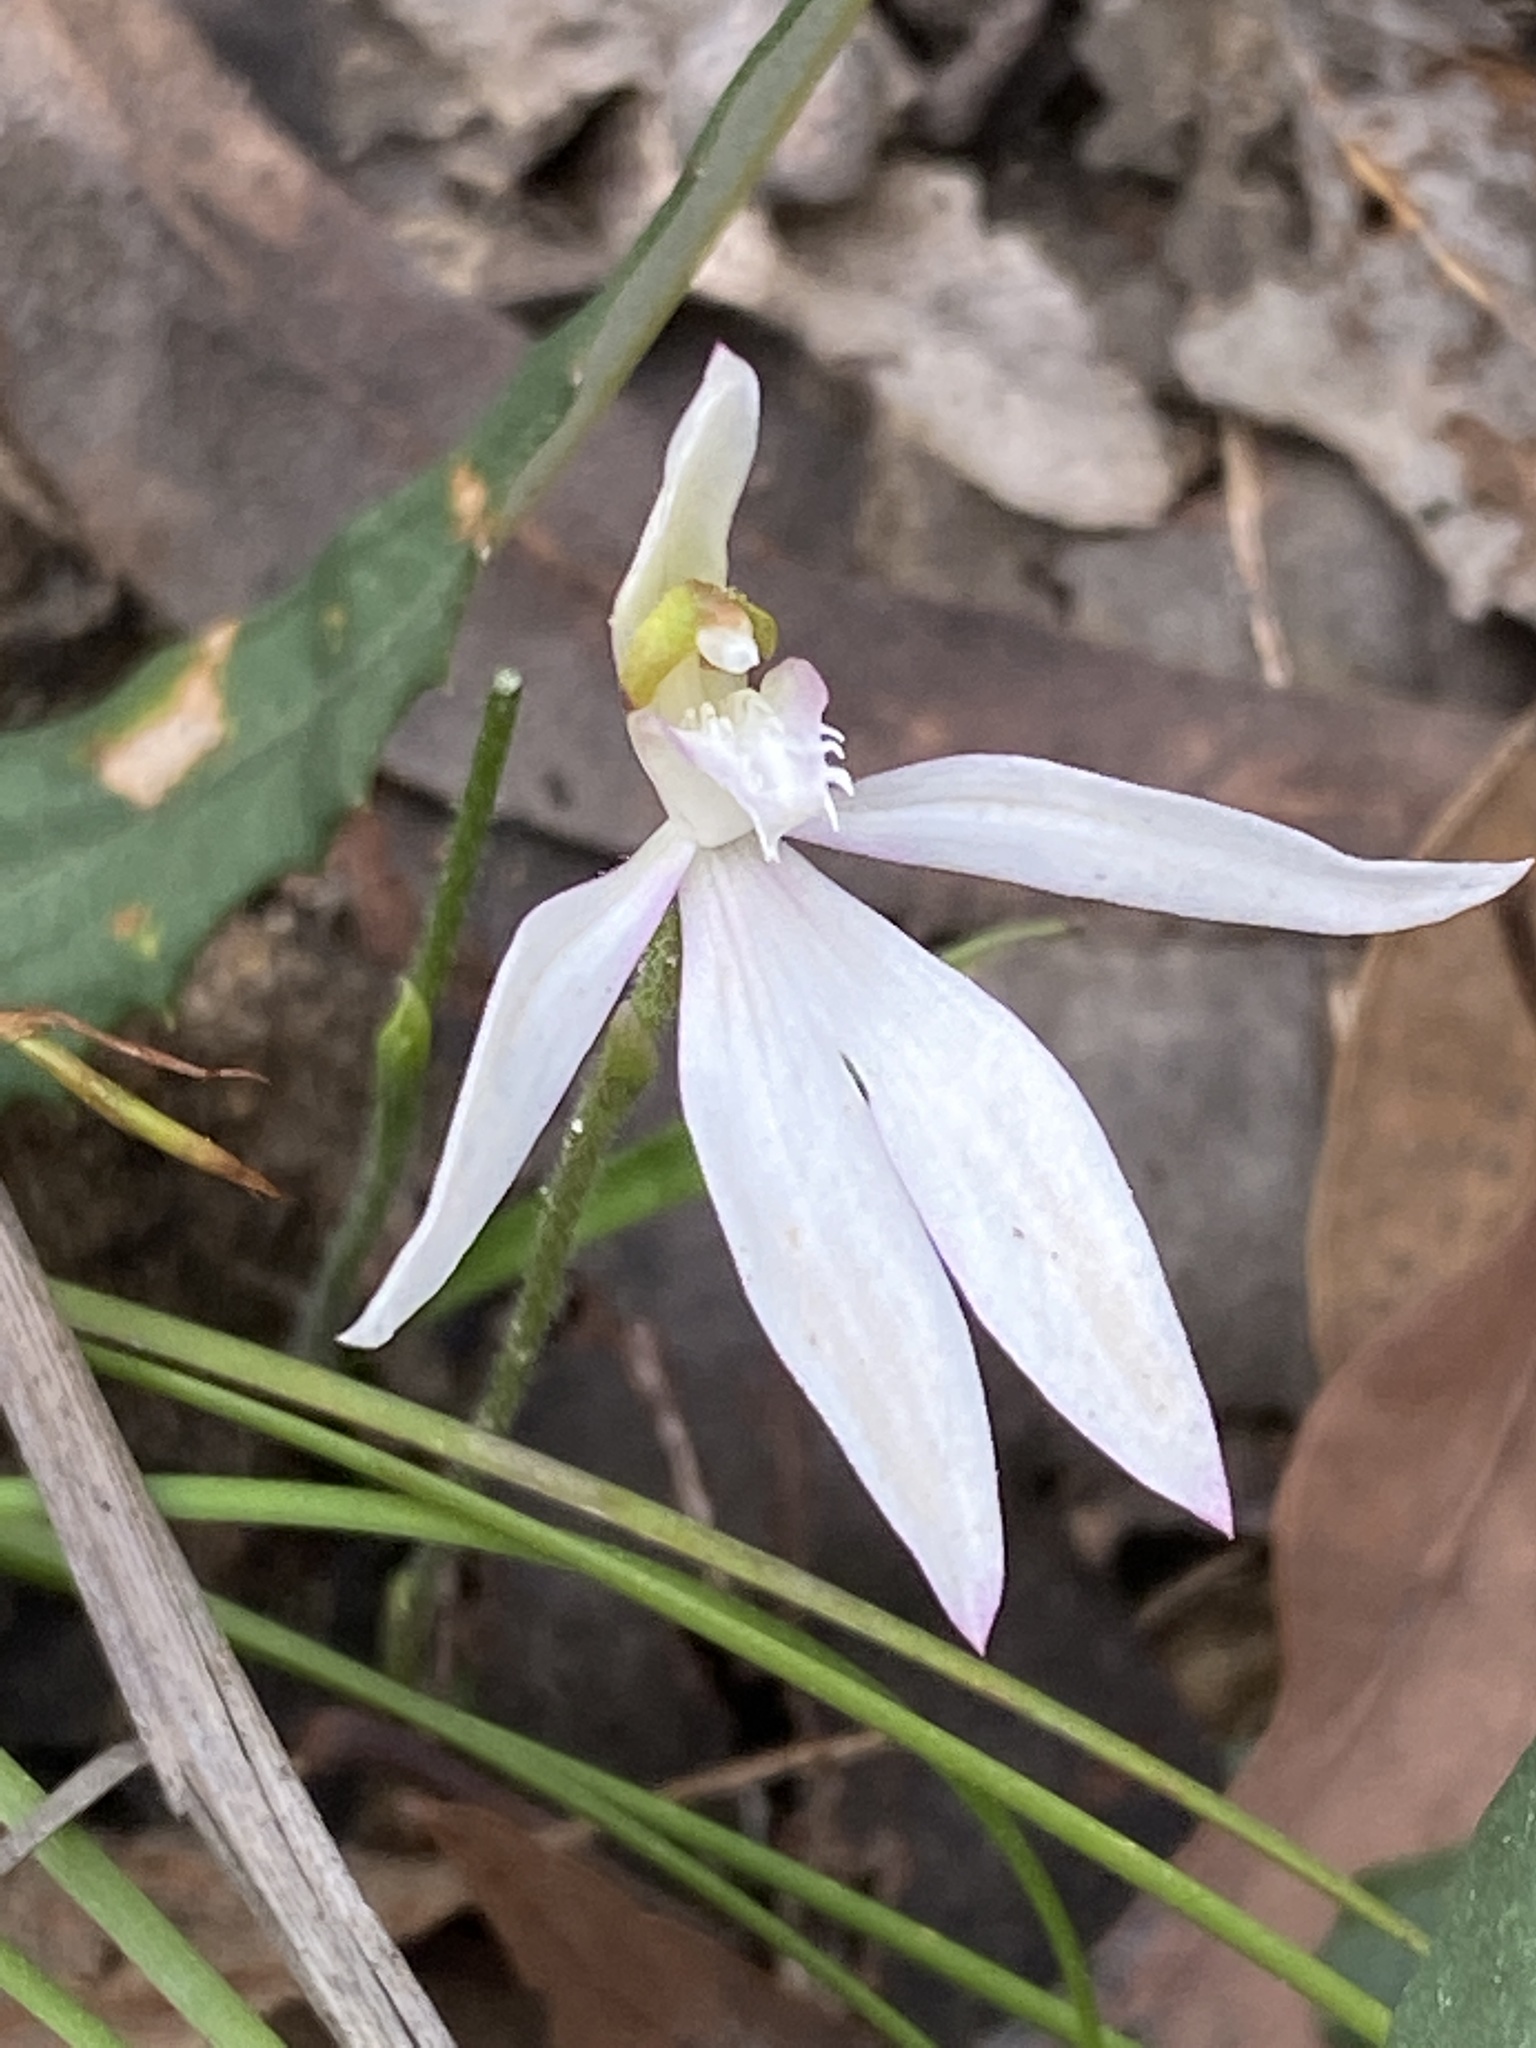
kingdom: Plantae
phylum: Tracheophyta
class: Liliopsida
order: Asparagales
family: Orchidaceae
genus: Caladenia
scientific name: Caladenia catenata
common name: White caladenia
